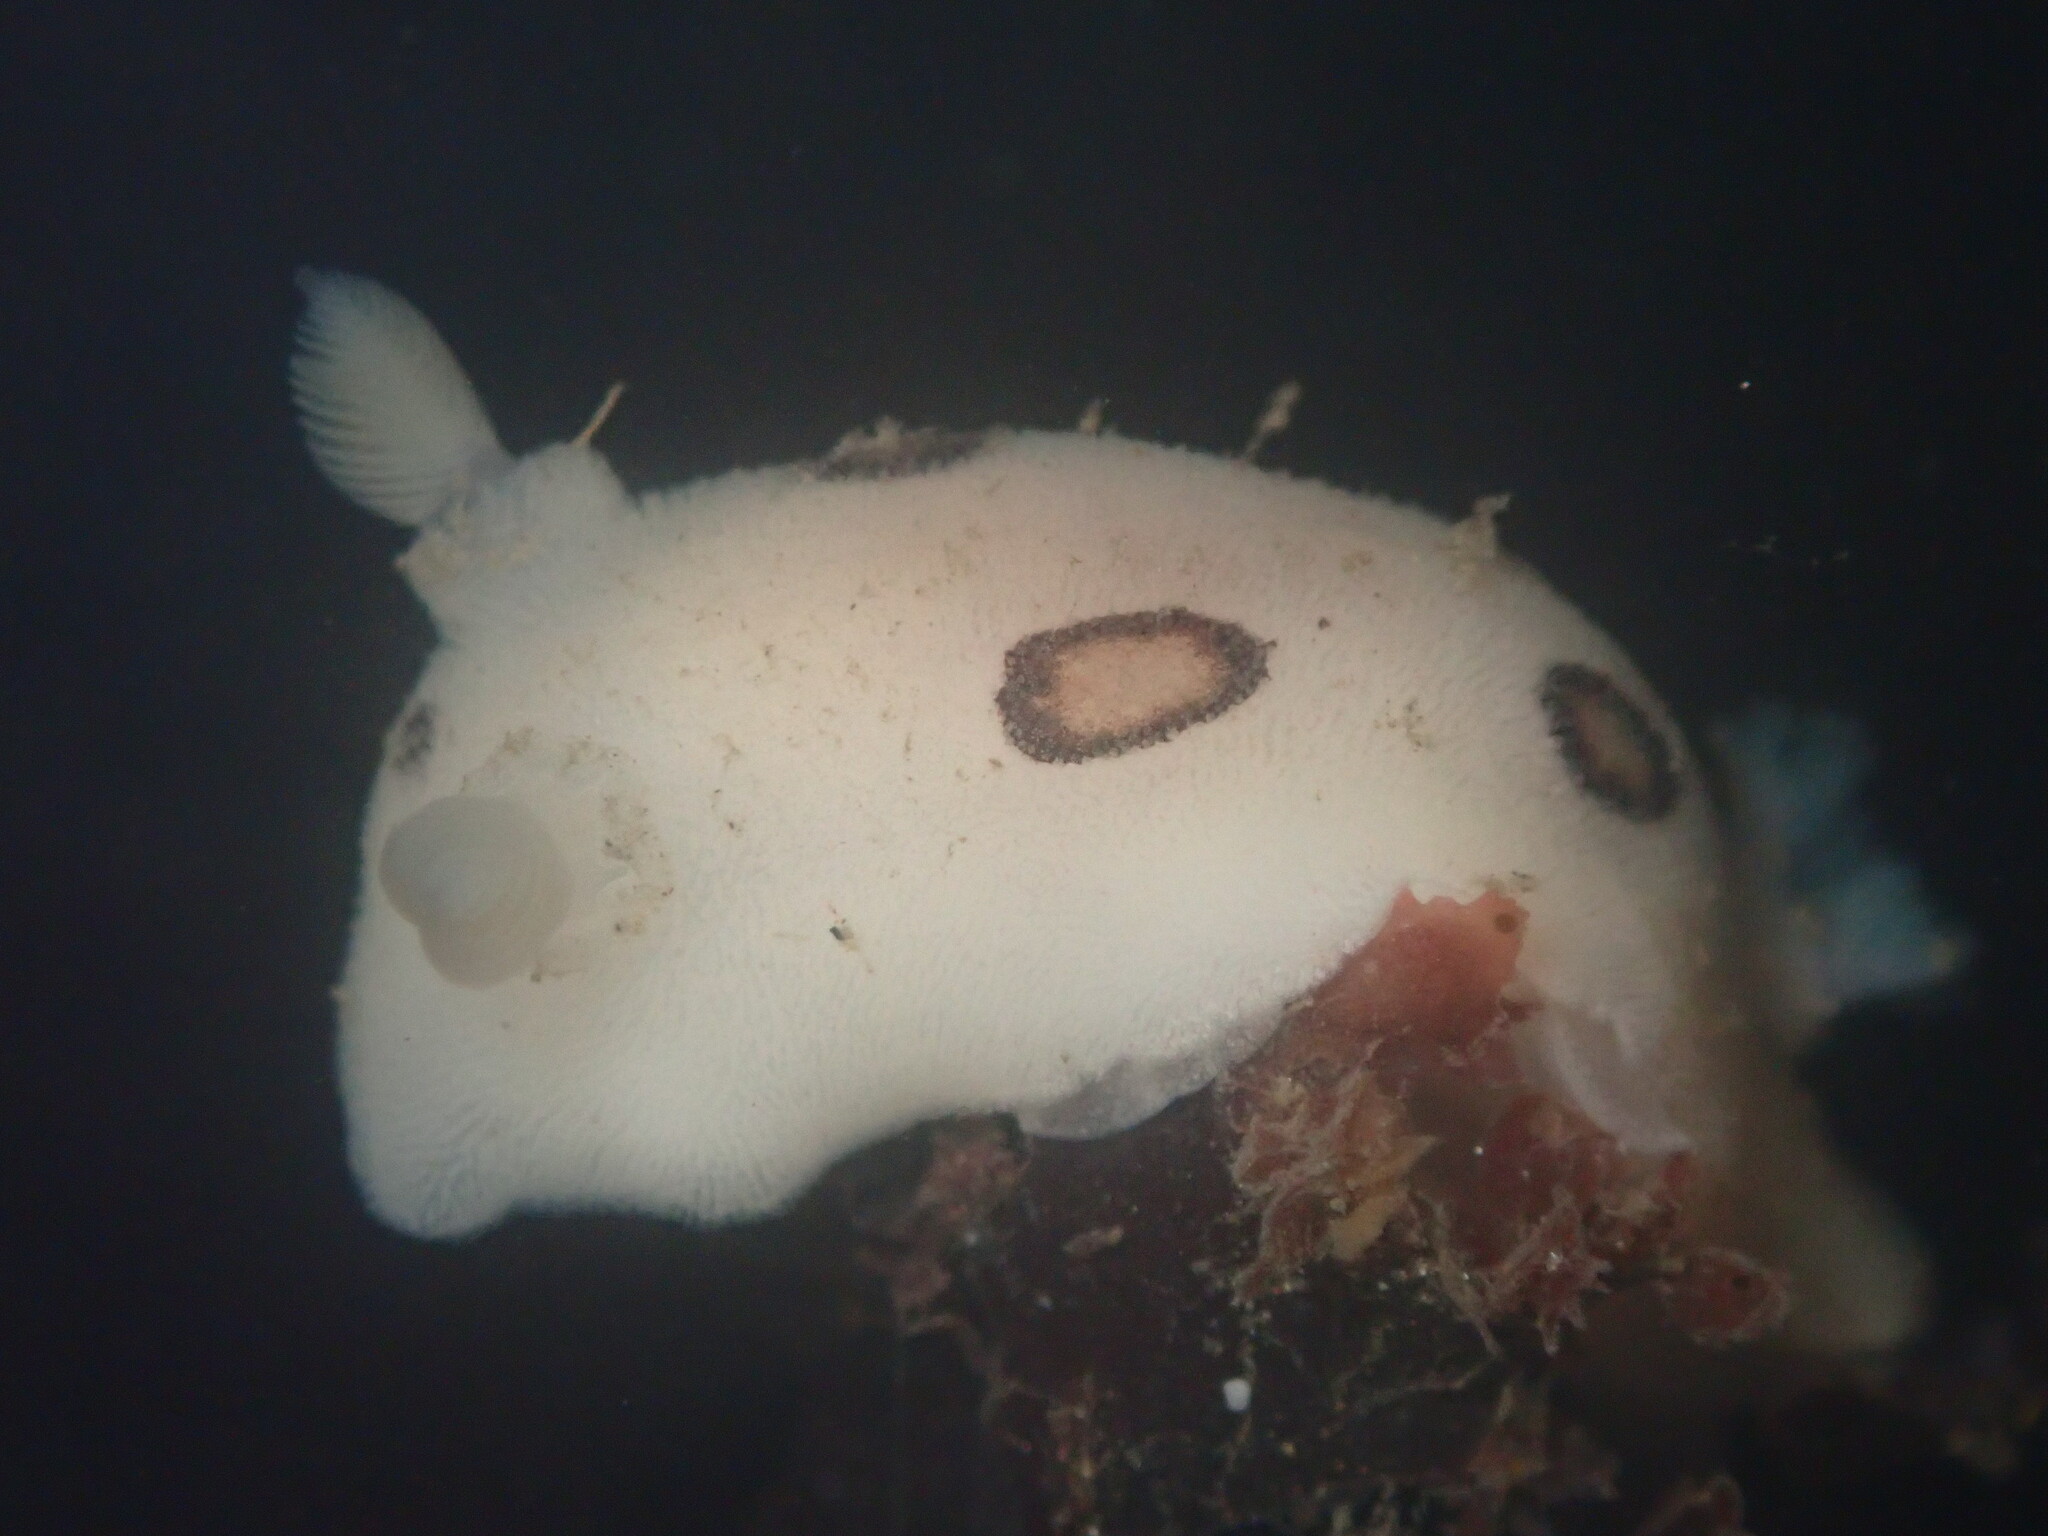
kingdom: Animalia
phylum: Mollusca
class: Gastropoda
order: Nudibranchia
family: Discodorididae
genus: Diaulula
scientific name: Diaulula sandiegensis
